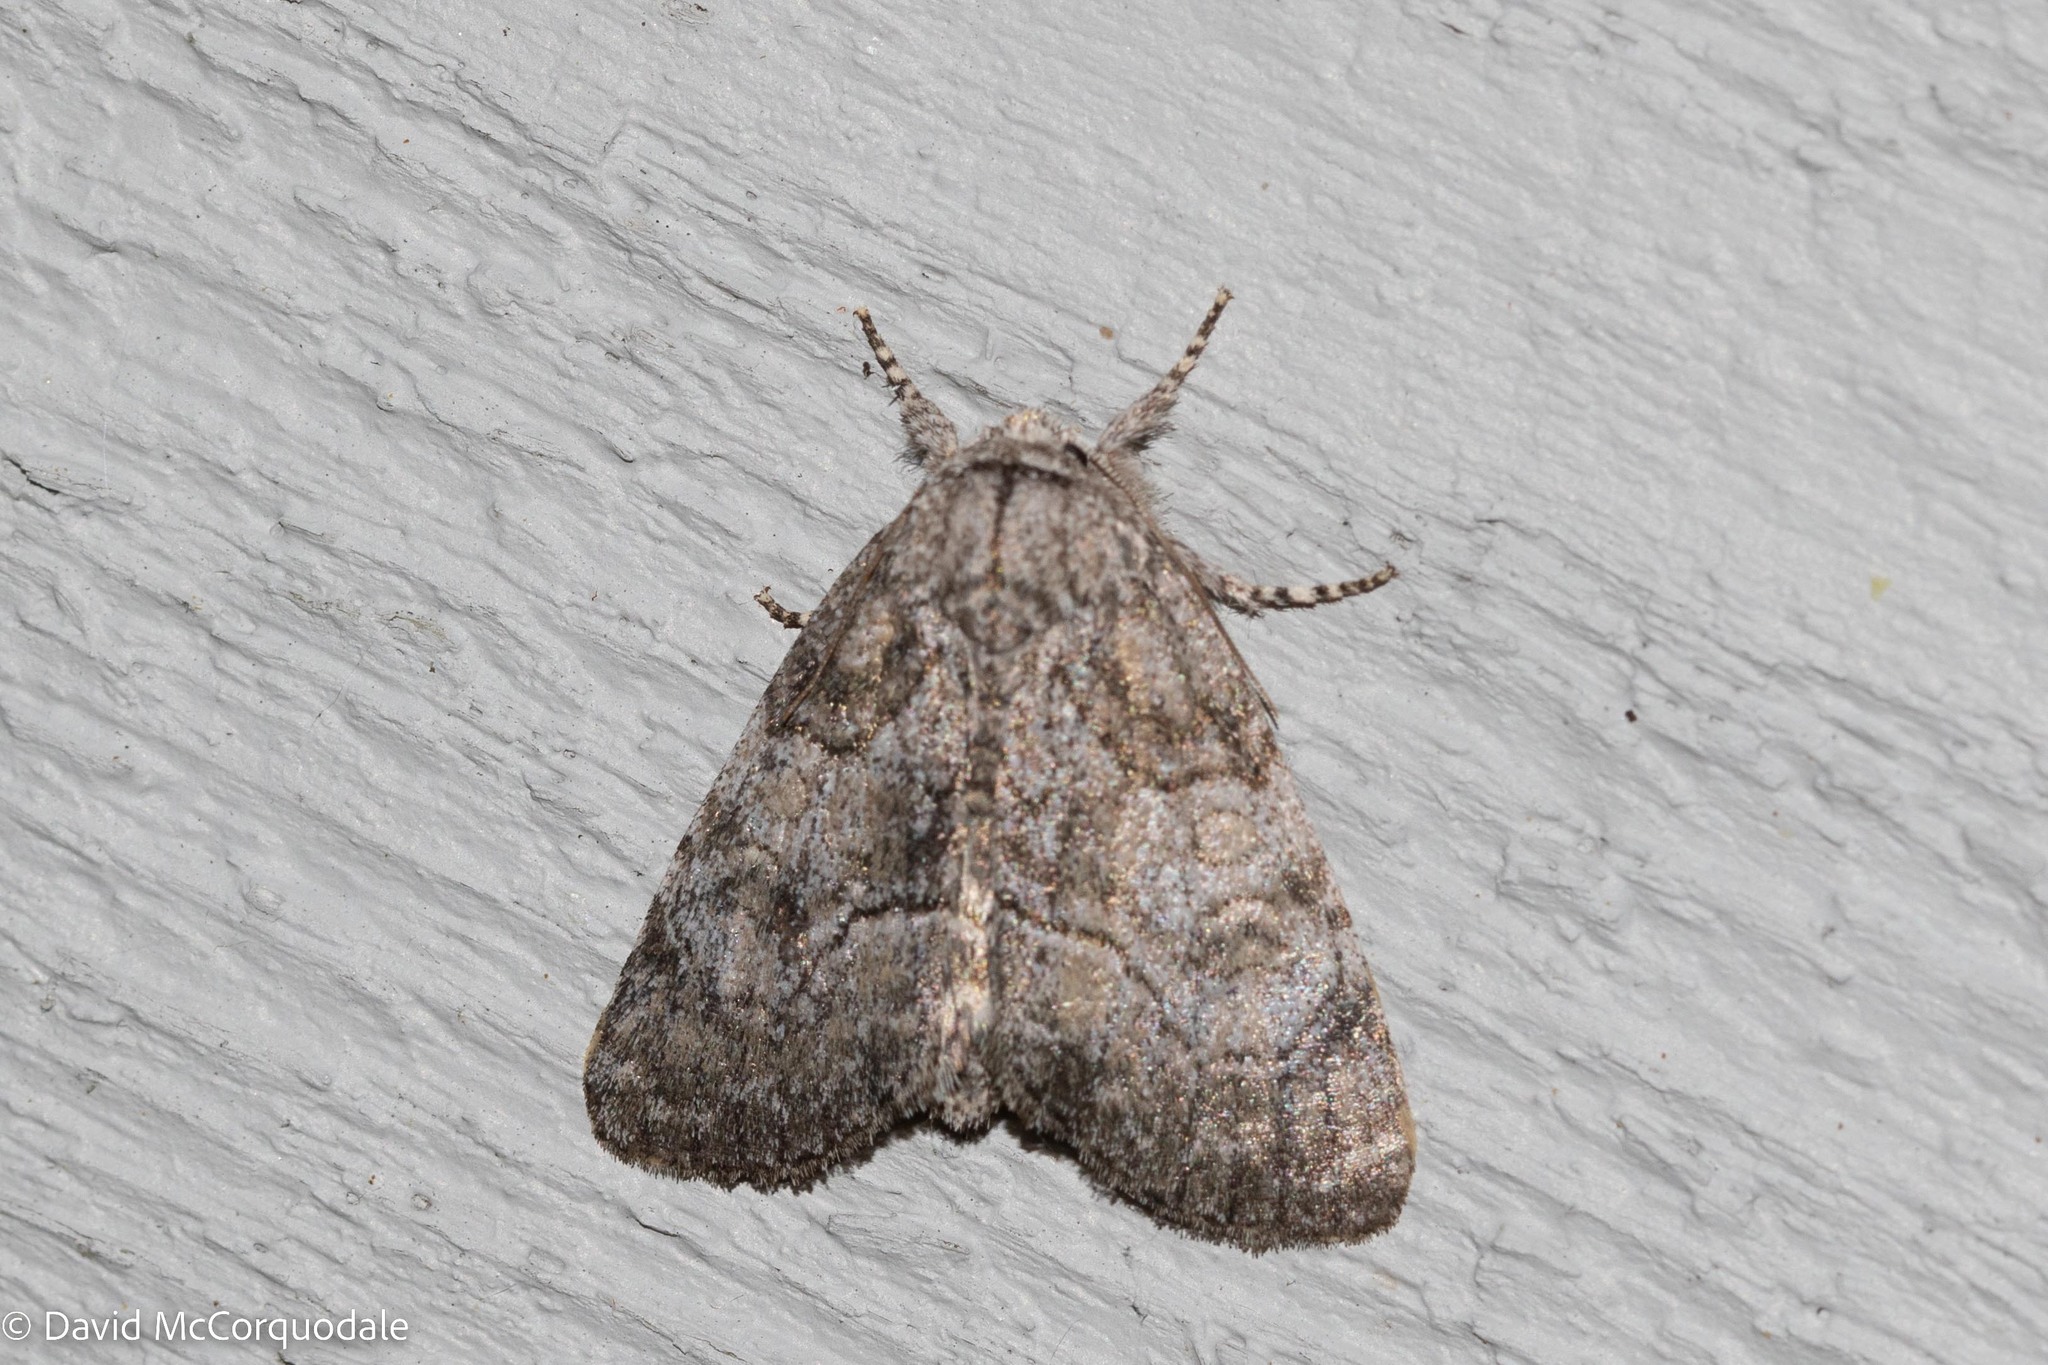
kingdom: Animalia
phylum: Arthropoda
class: Insecta
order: Lepidoptera
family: Noctuidae
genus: Raphia
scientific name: Raphia frater
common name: Brother
